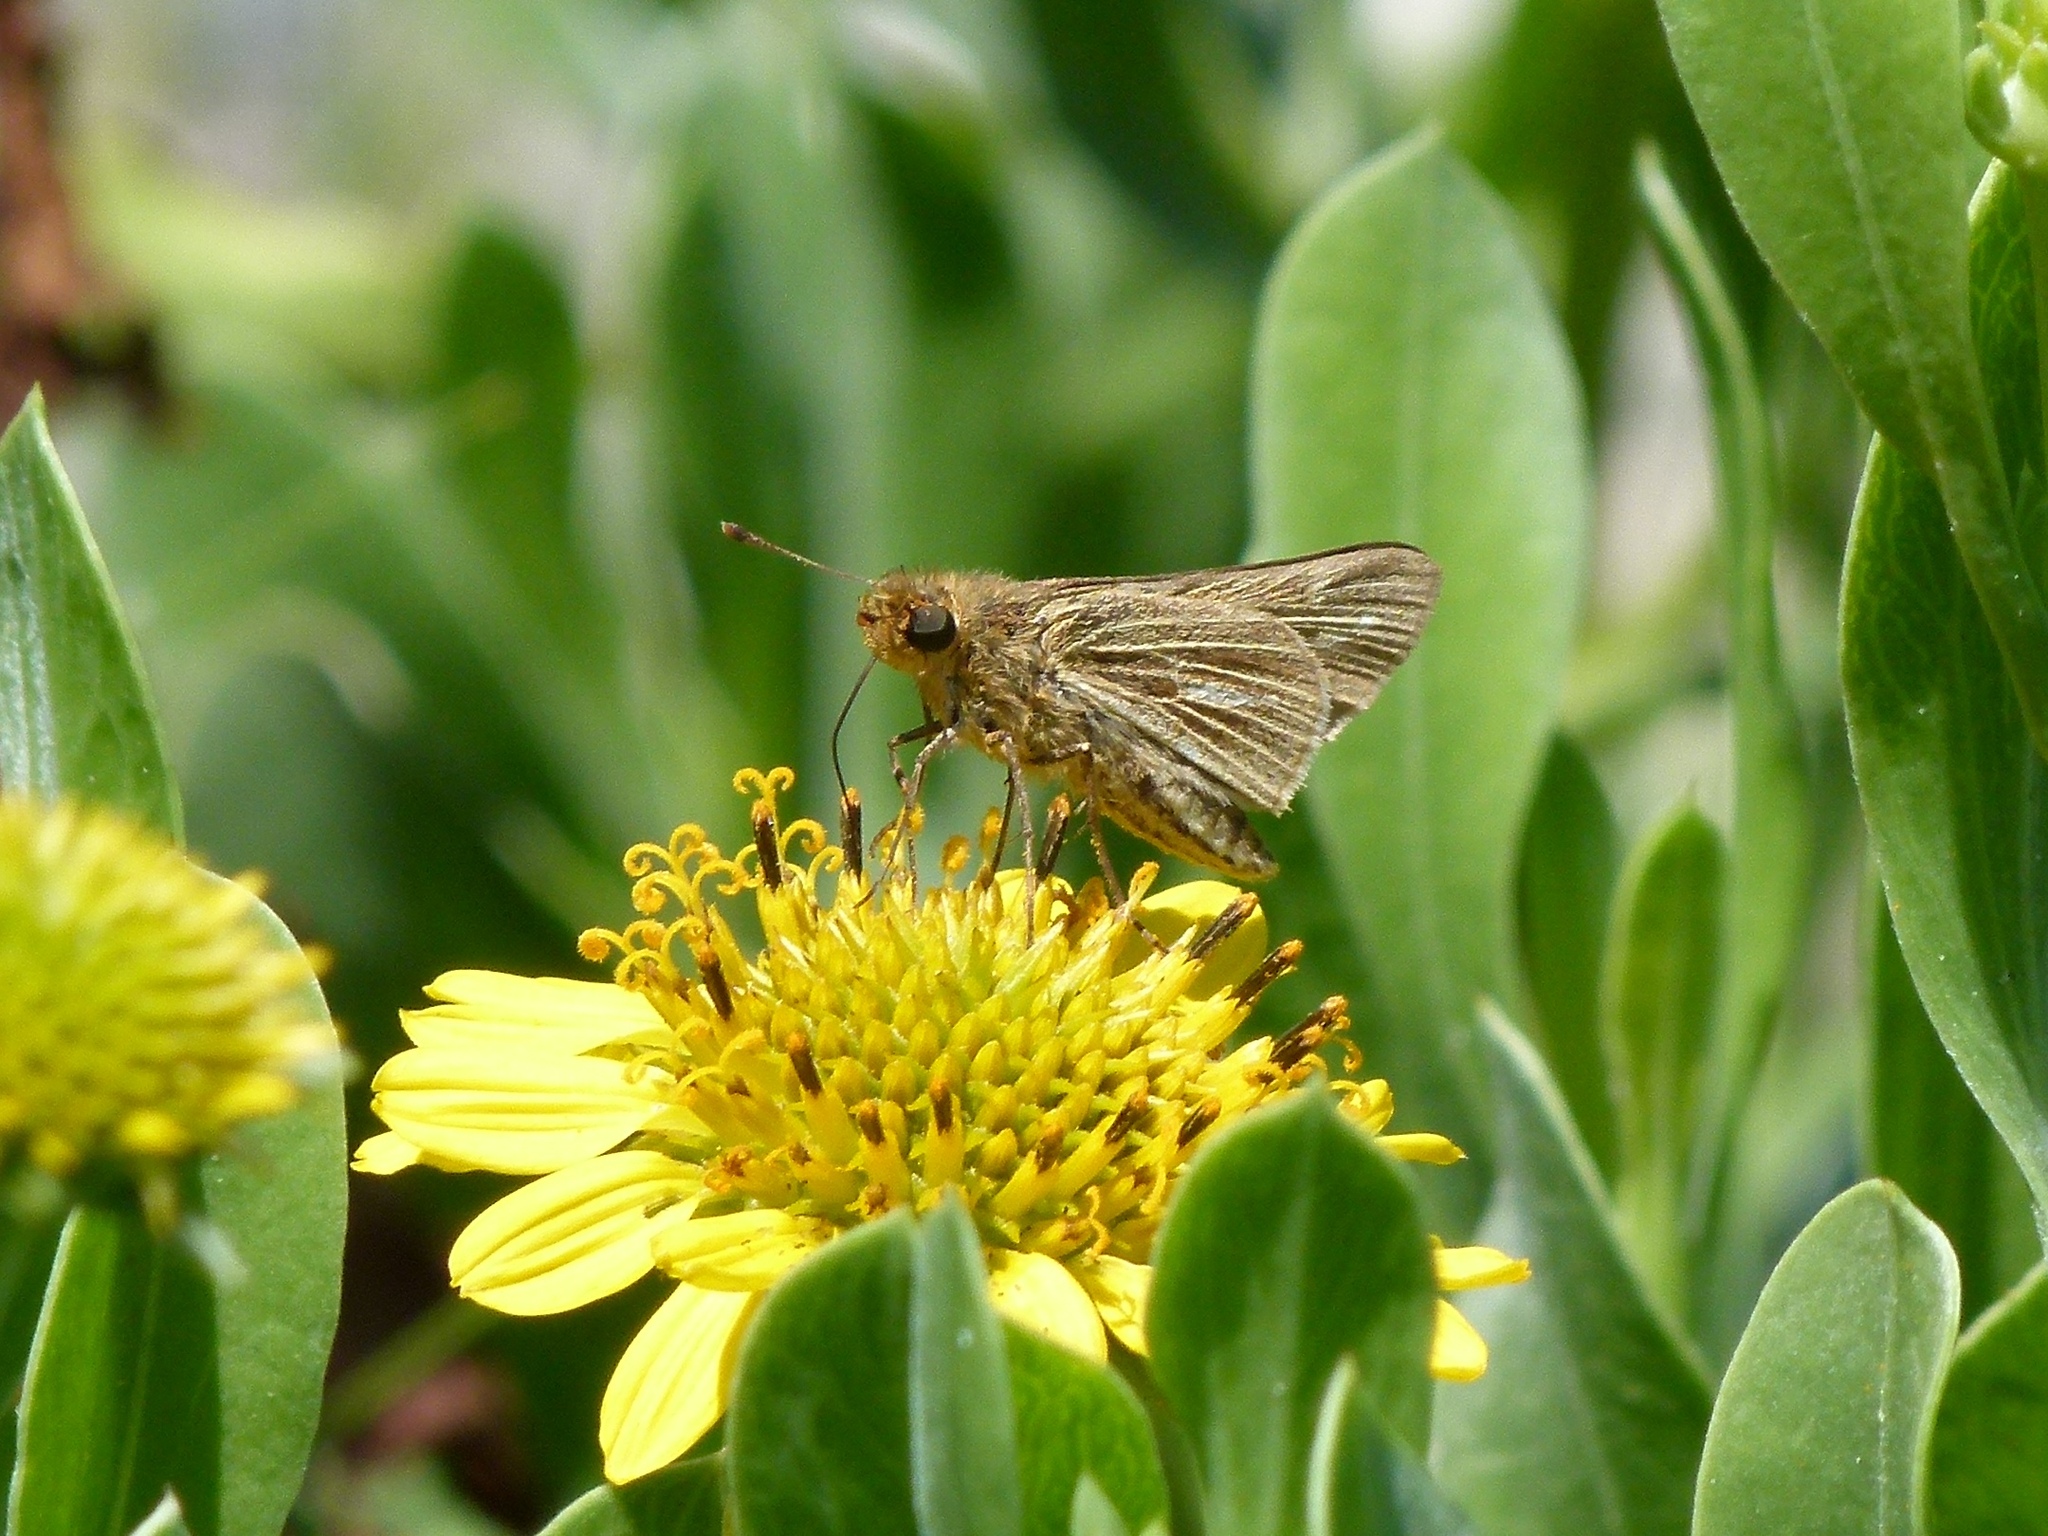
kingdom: Animalia
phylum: Arthropoda
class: Insecta
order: Lepidoptera
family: Hesperiidae
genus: Panoquina
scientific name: Panoquina panoquin
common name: Salt marsh skipper
